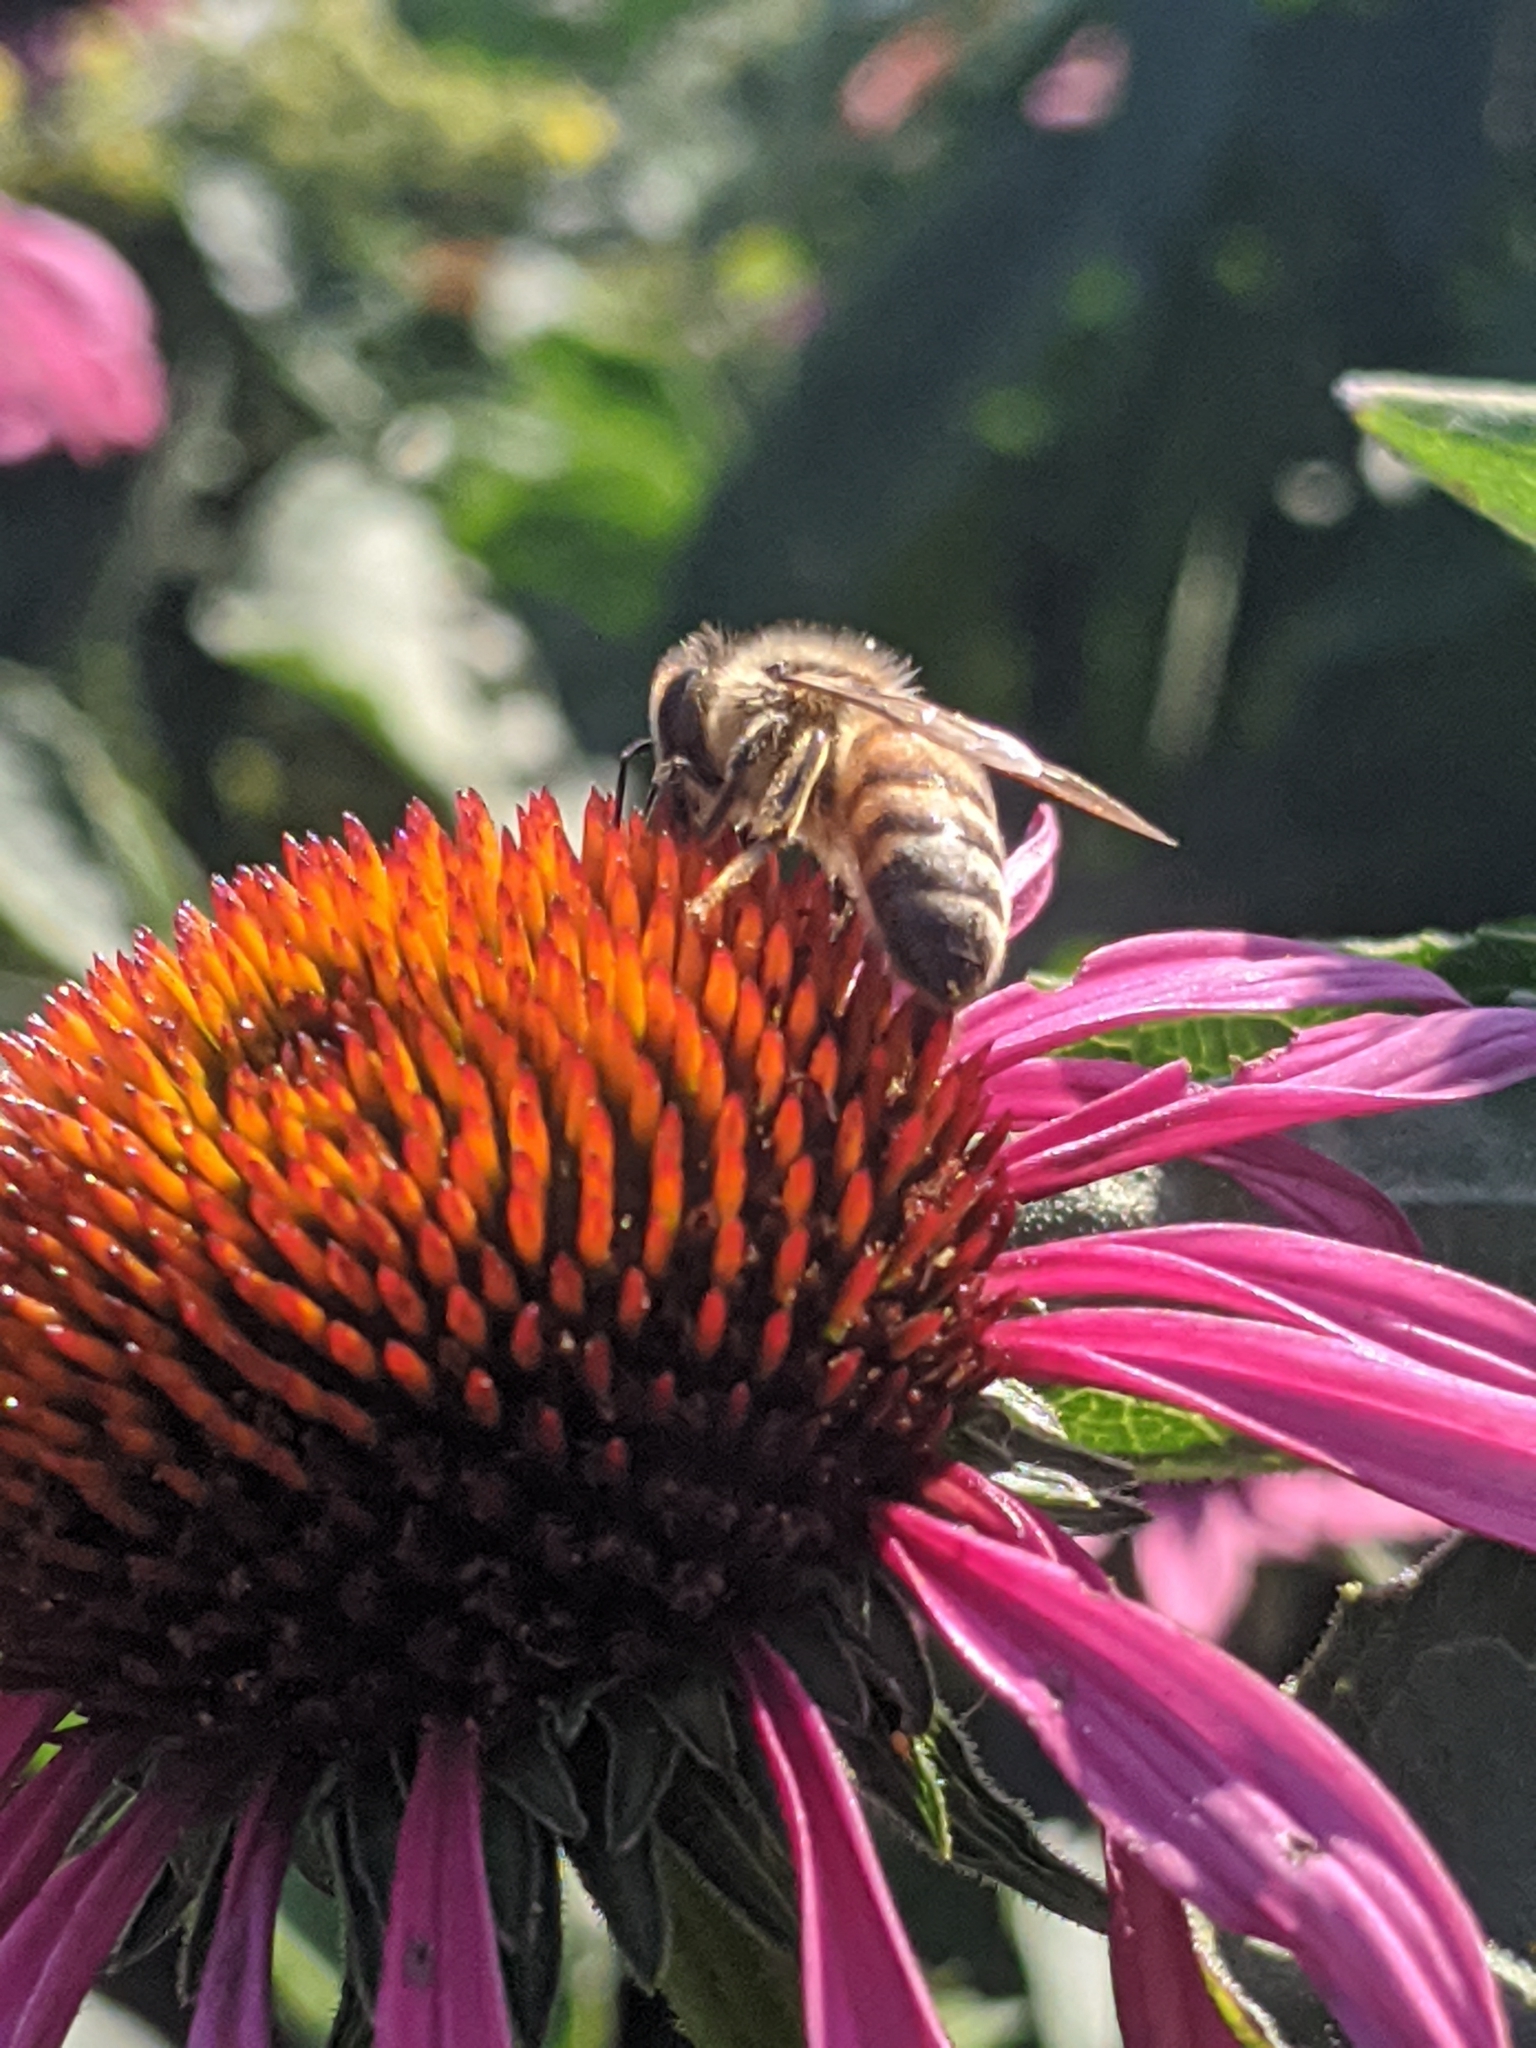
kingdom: Animalia
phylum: Arthropoda
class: Insecta
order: Hymenoptera
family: Apidae
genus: Apis
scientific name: Apis mellifera
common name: Honey bee
